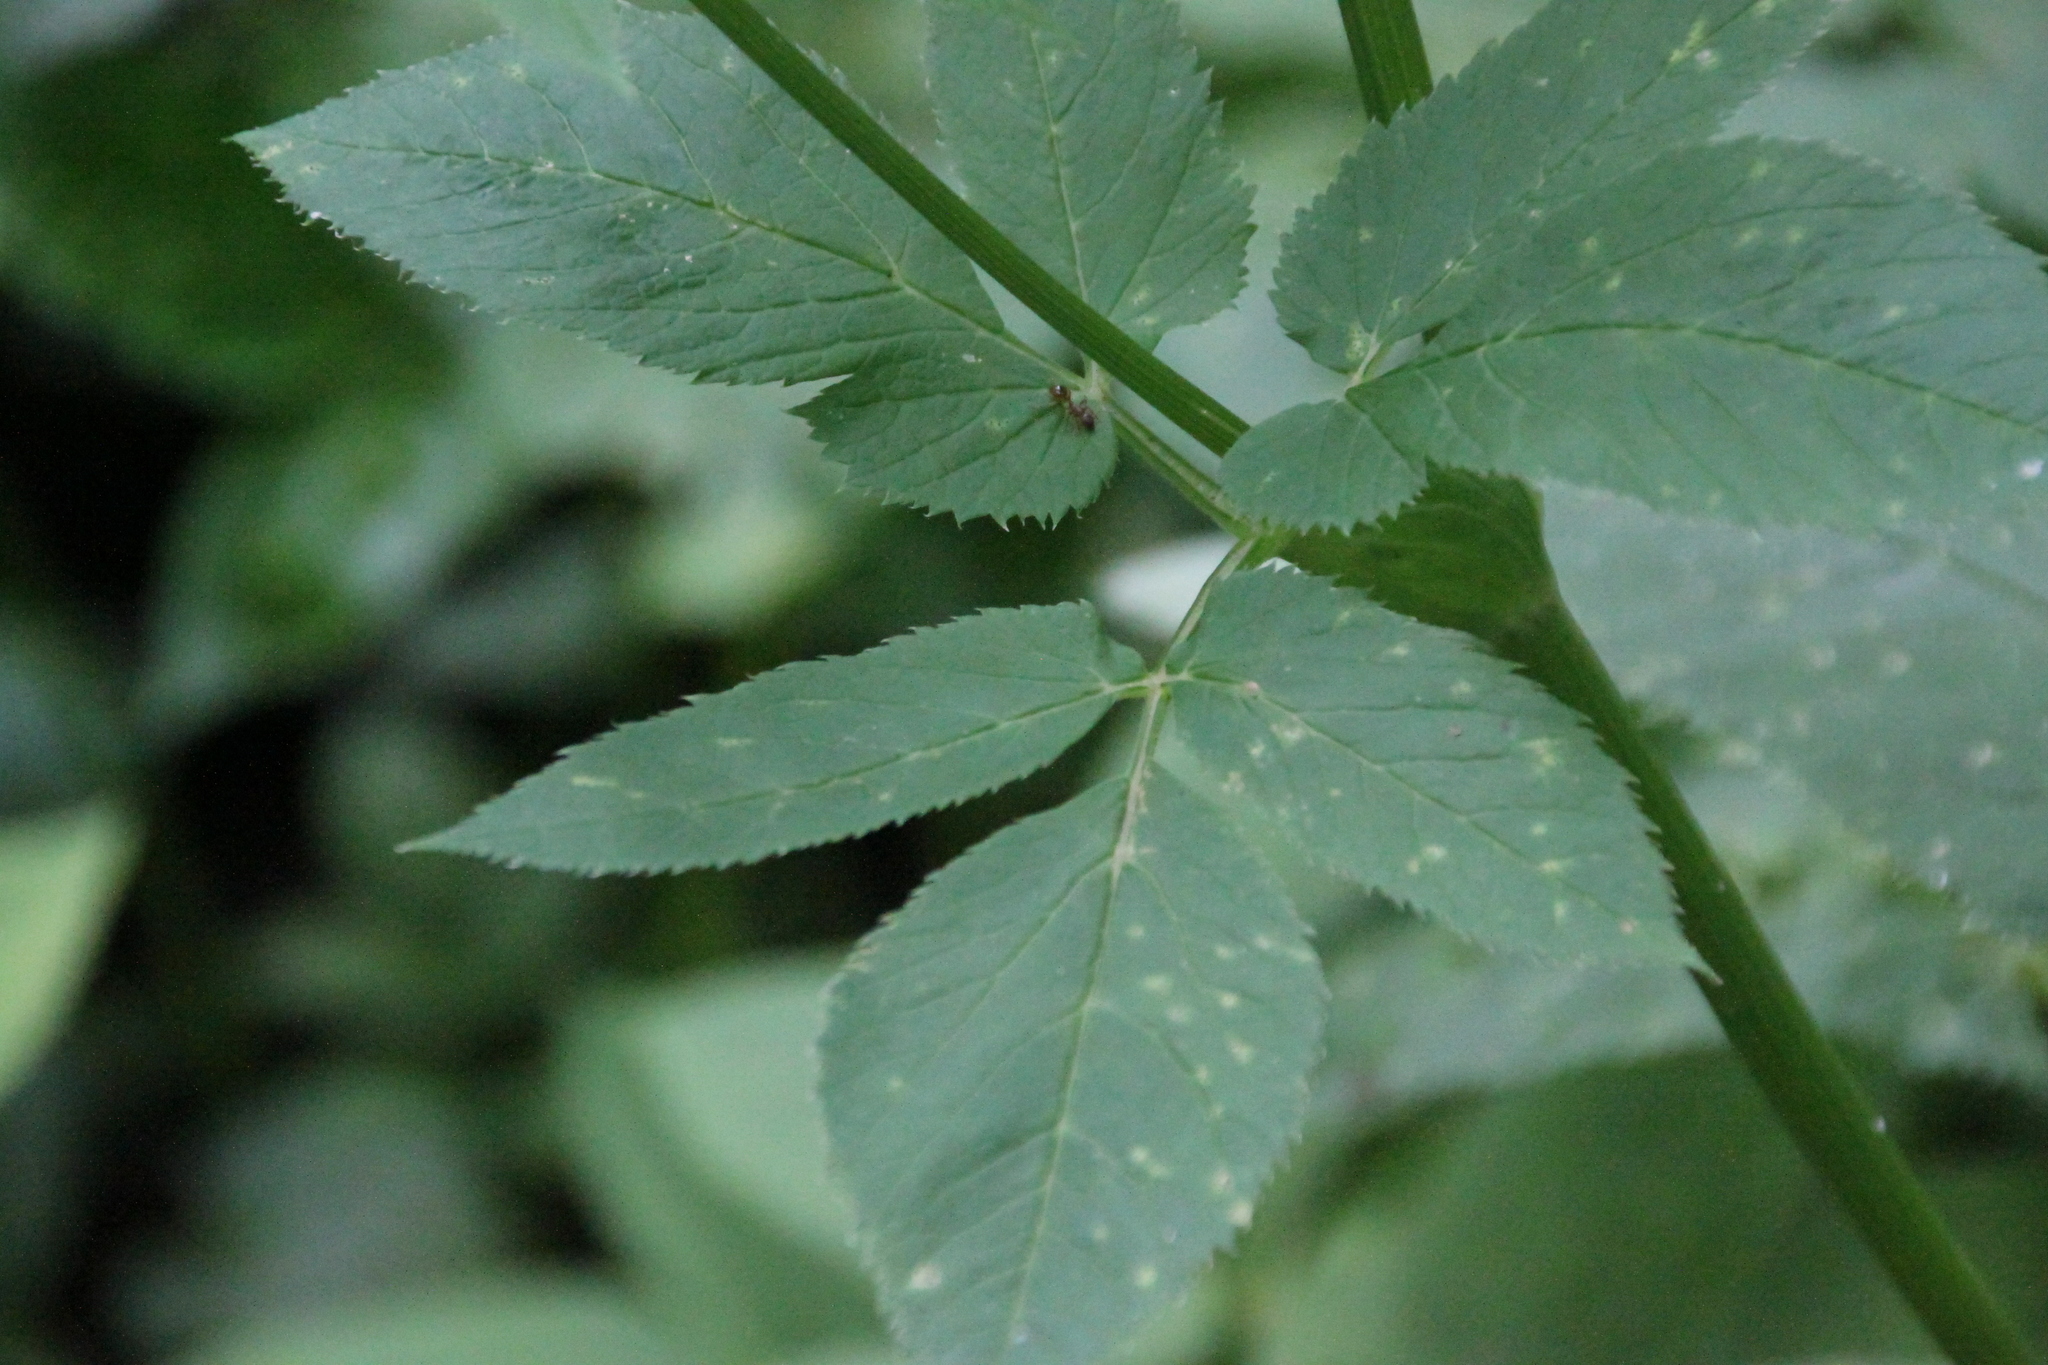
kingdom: Plantae
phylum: Tracheophyta
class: Magnoliopsida
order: Apiales
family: Apiaceae
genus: Aegopodium
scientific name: Aegopodium podagraria
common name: Ground-elder
